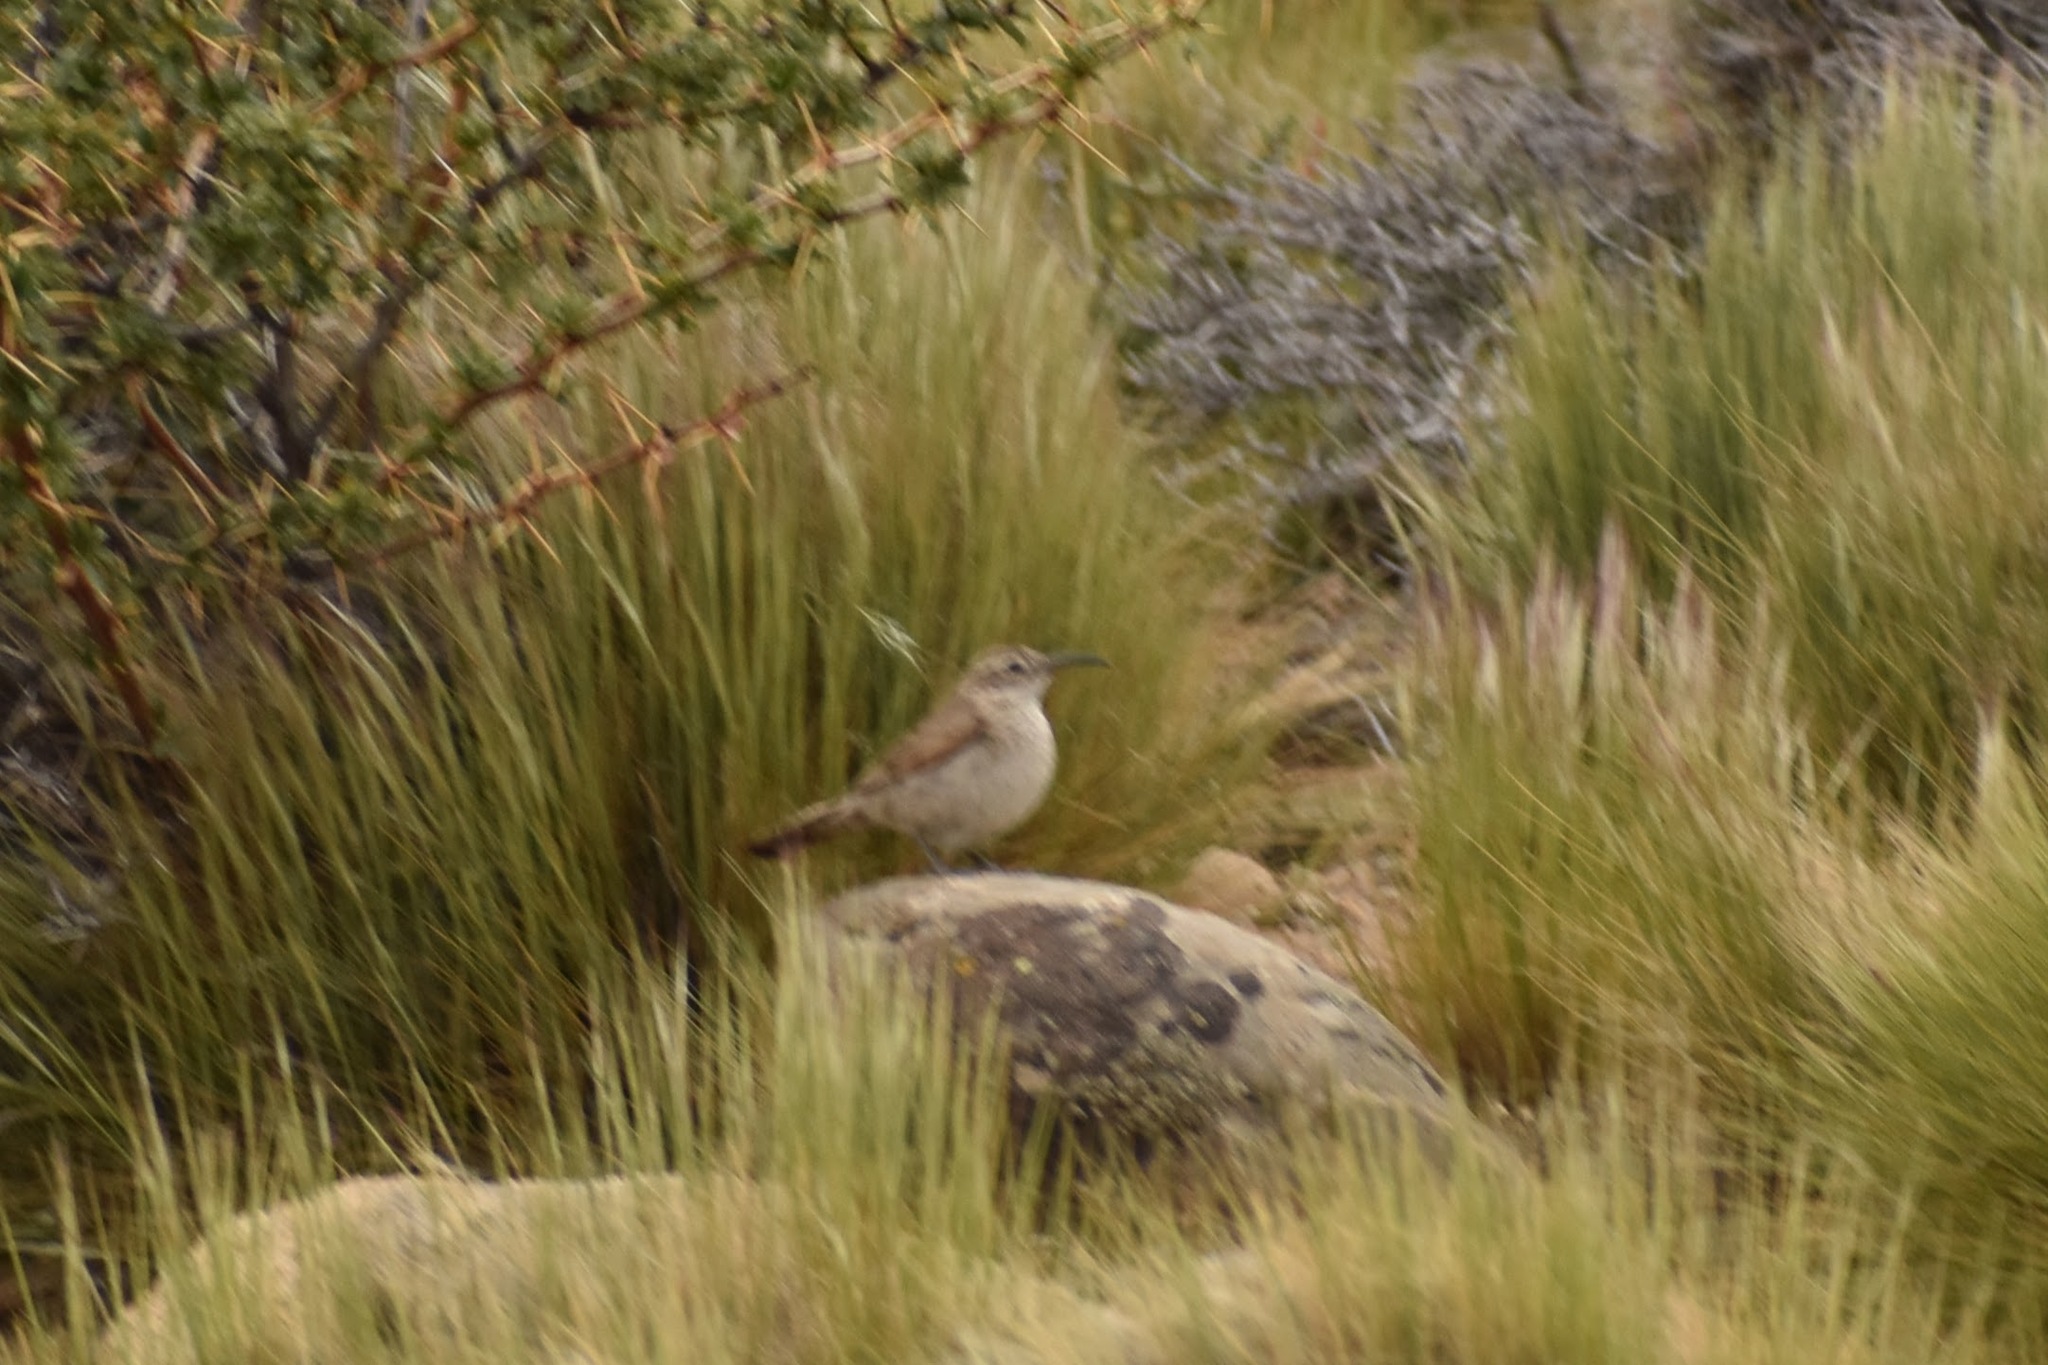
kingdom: Animalia
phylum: Chordata
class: Aves
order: Passeriformes
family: Furnariidae
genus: Upucerthia
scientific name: Upucerthia dumetaria
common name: Scale-throated earthcreeper
